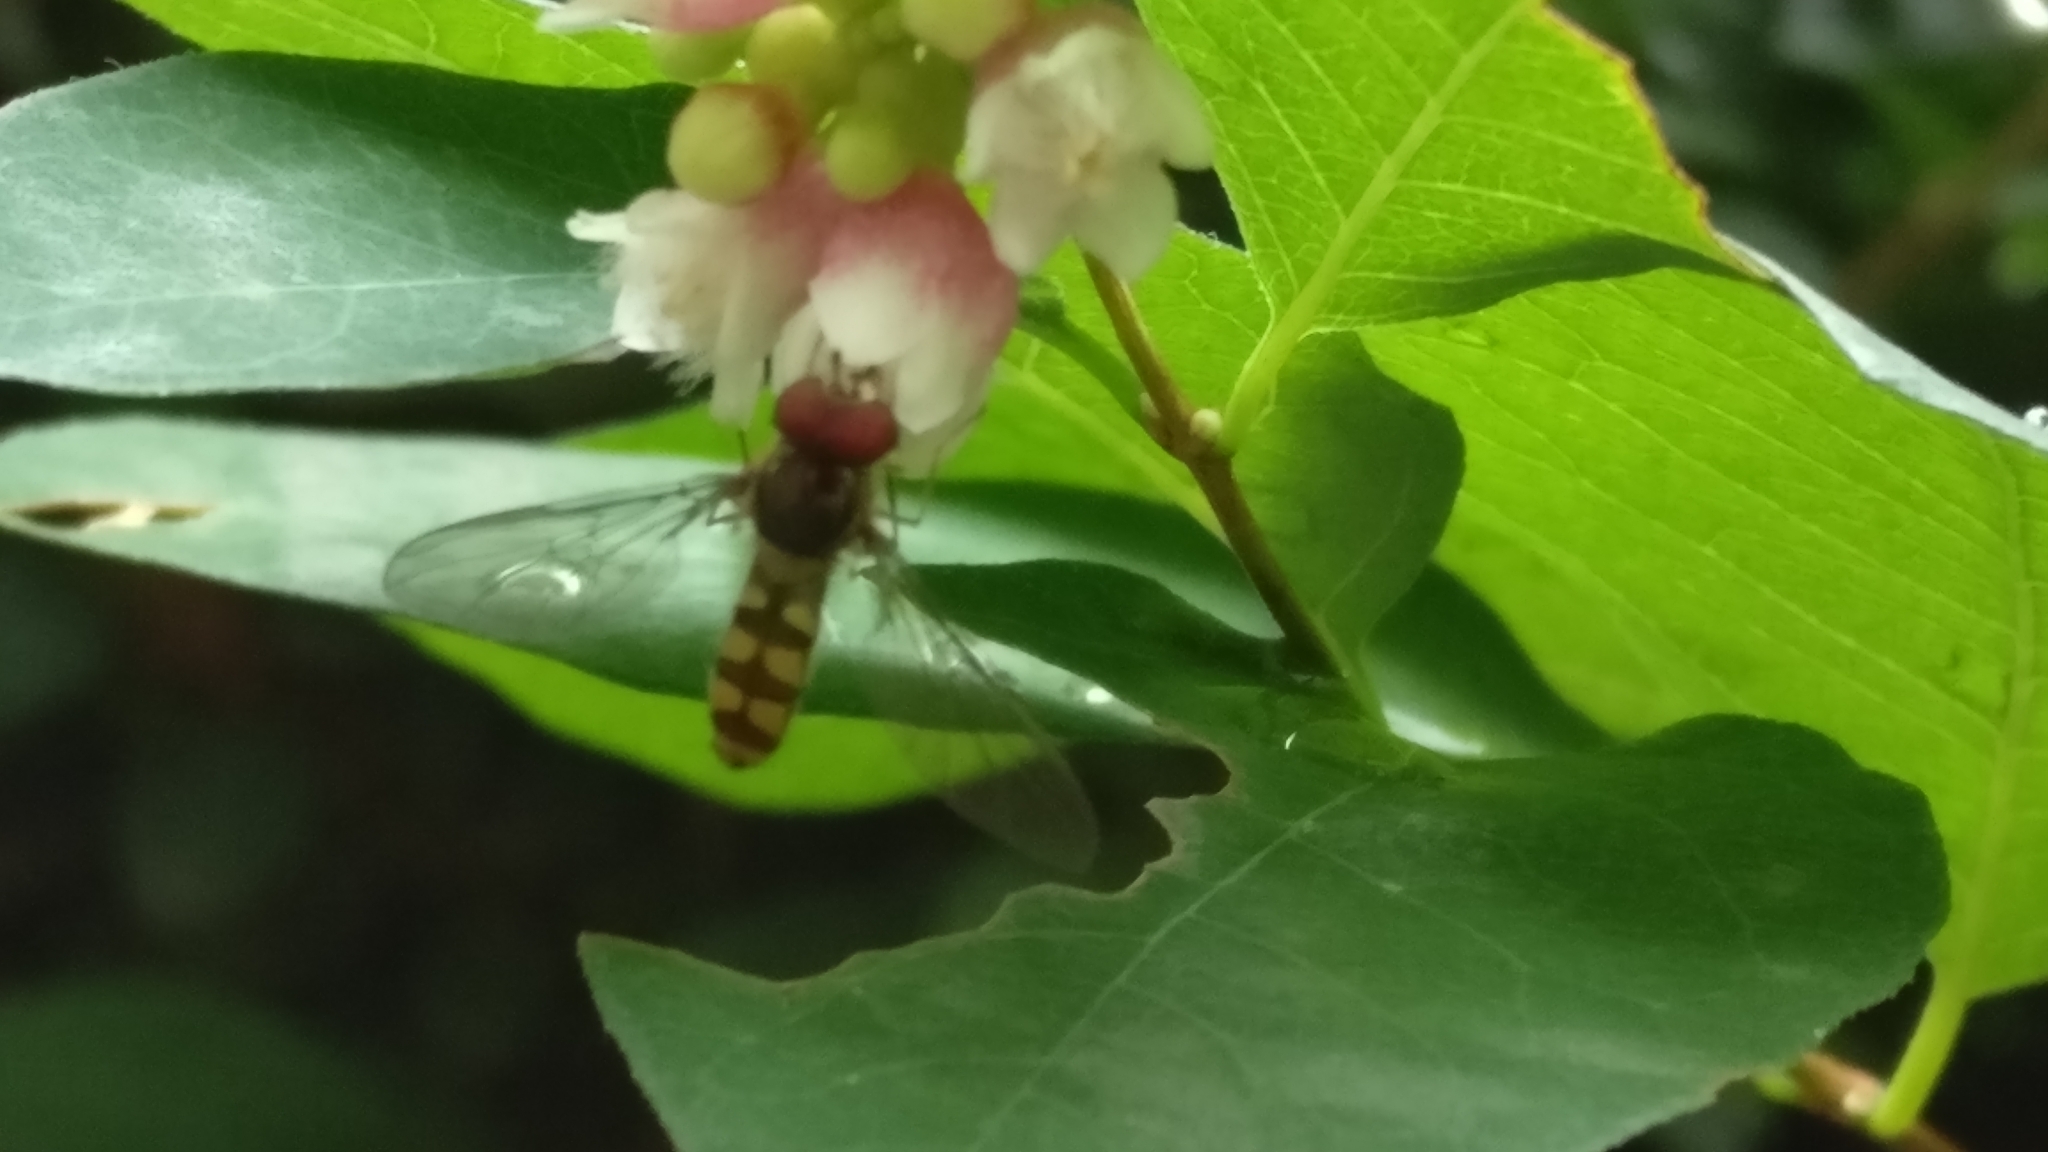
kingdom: Animalia
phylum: Arthropoda
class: Insecta
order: Diptera
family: Syrphidae
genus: Meliscaeva
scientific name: Meliscaeva auricollis
